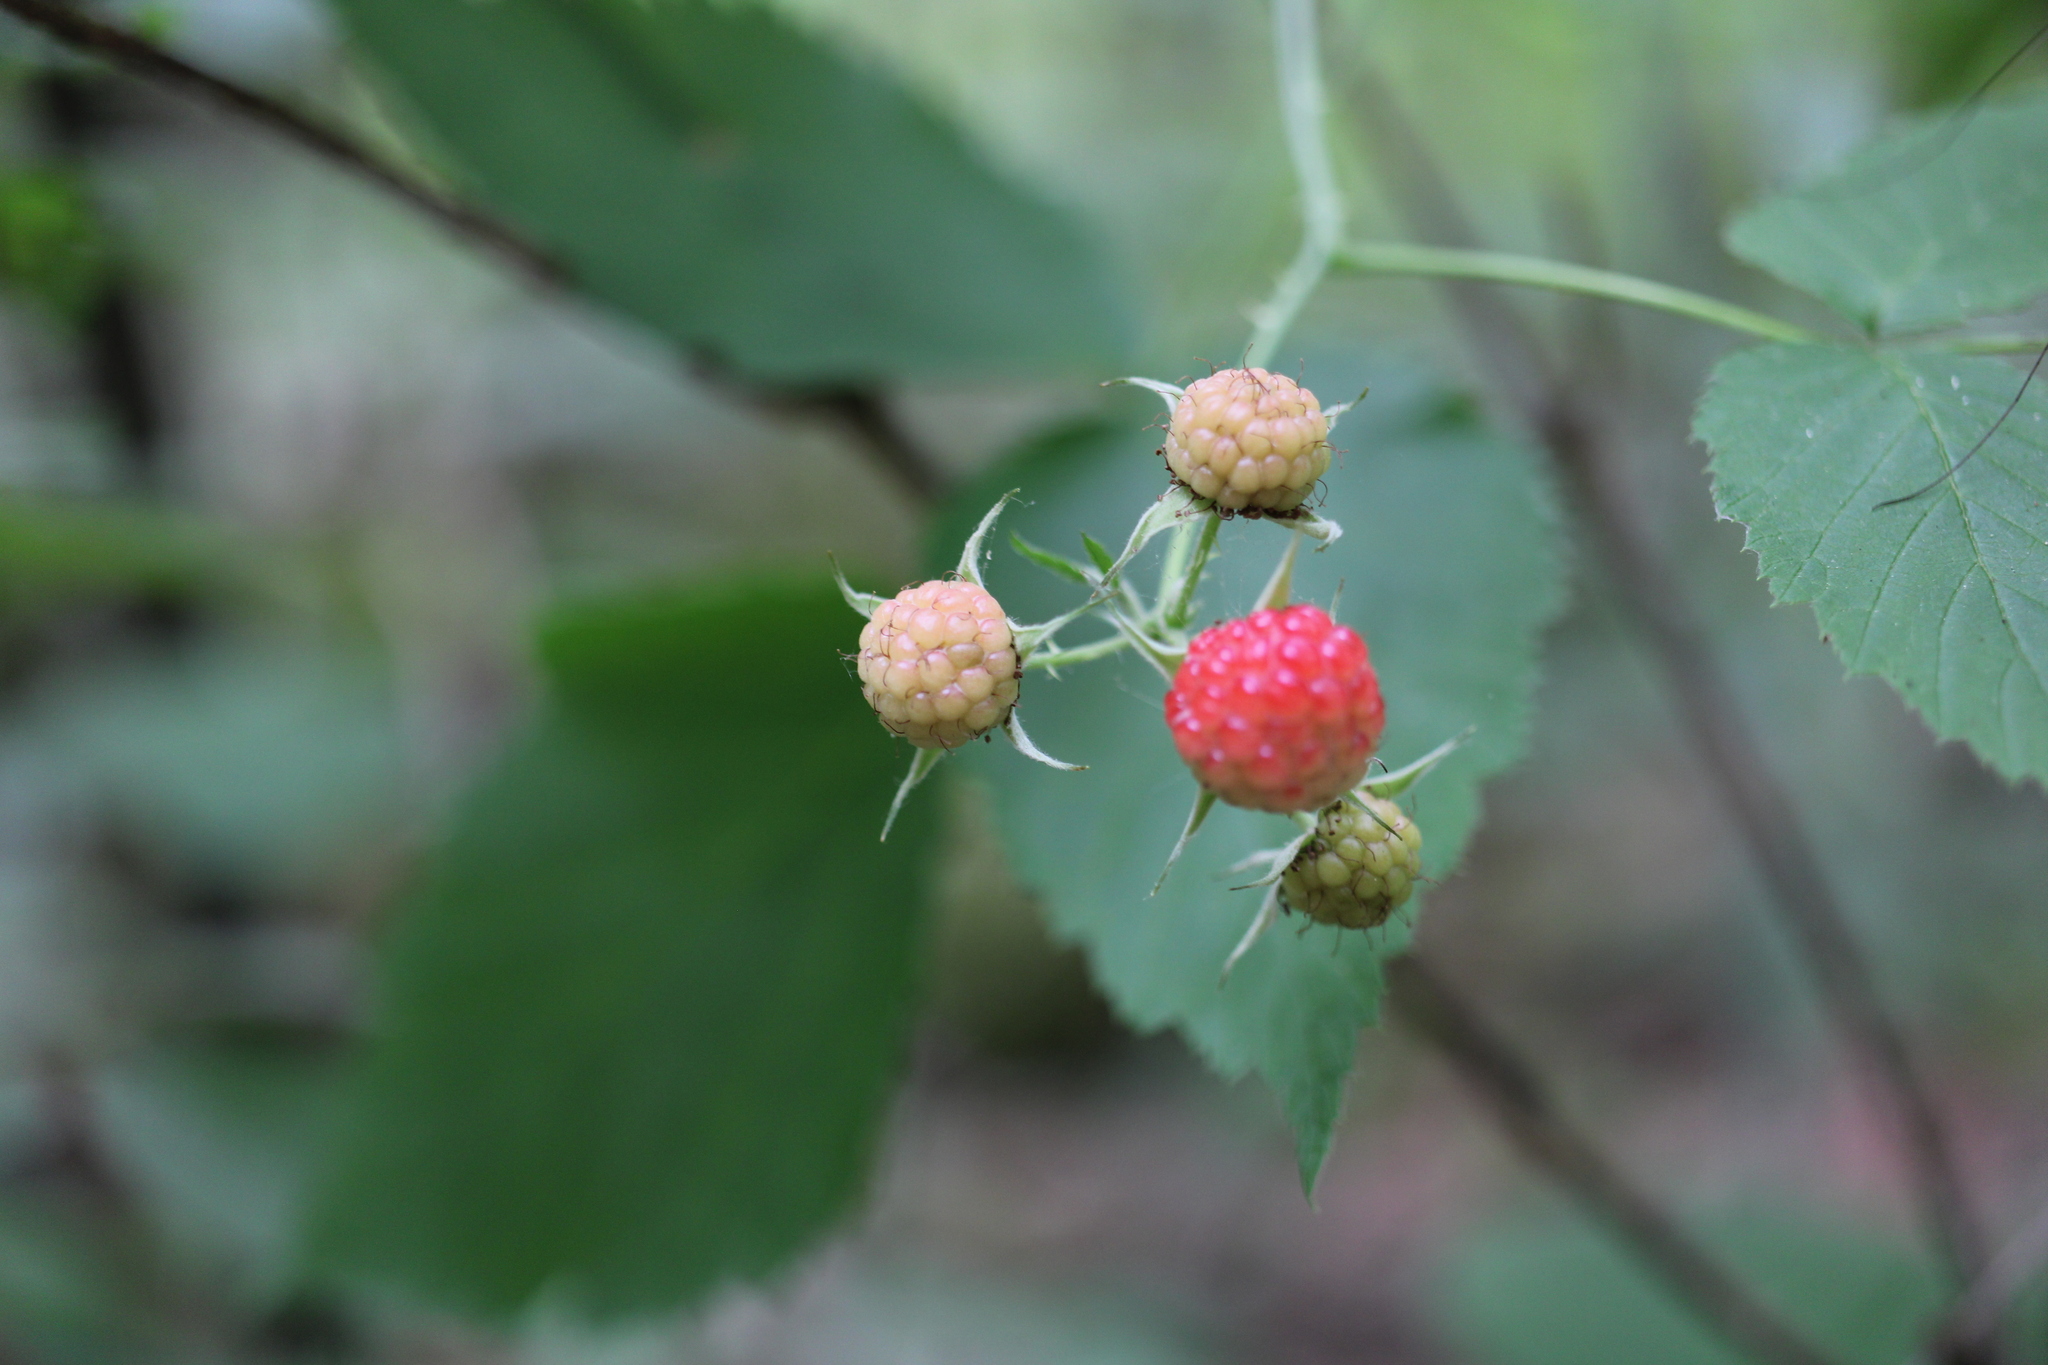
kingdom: Plantae
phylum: Tracheophyta
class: Magnoliopsida
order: Rosales
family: Rosaceae
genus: Rubus
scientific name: Rubus occidentalis
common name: Black raspberry
